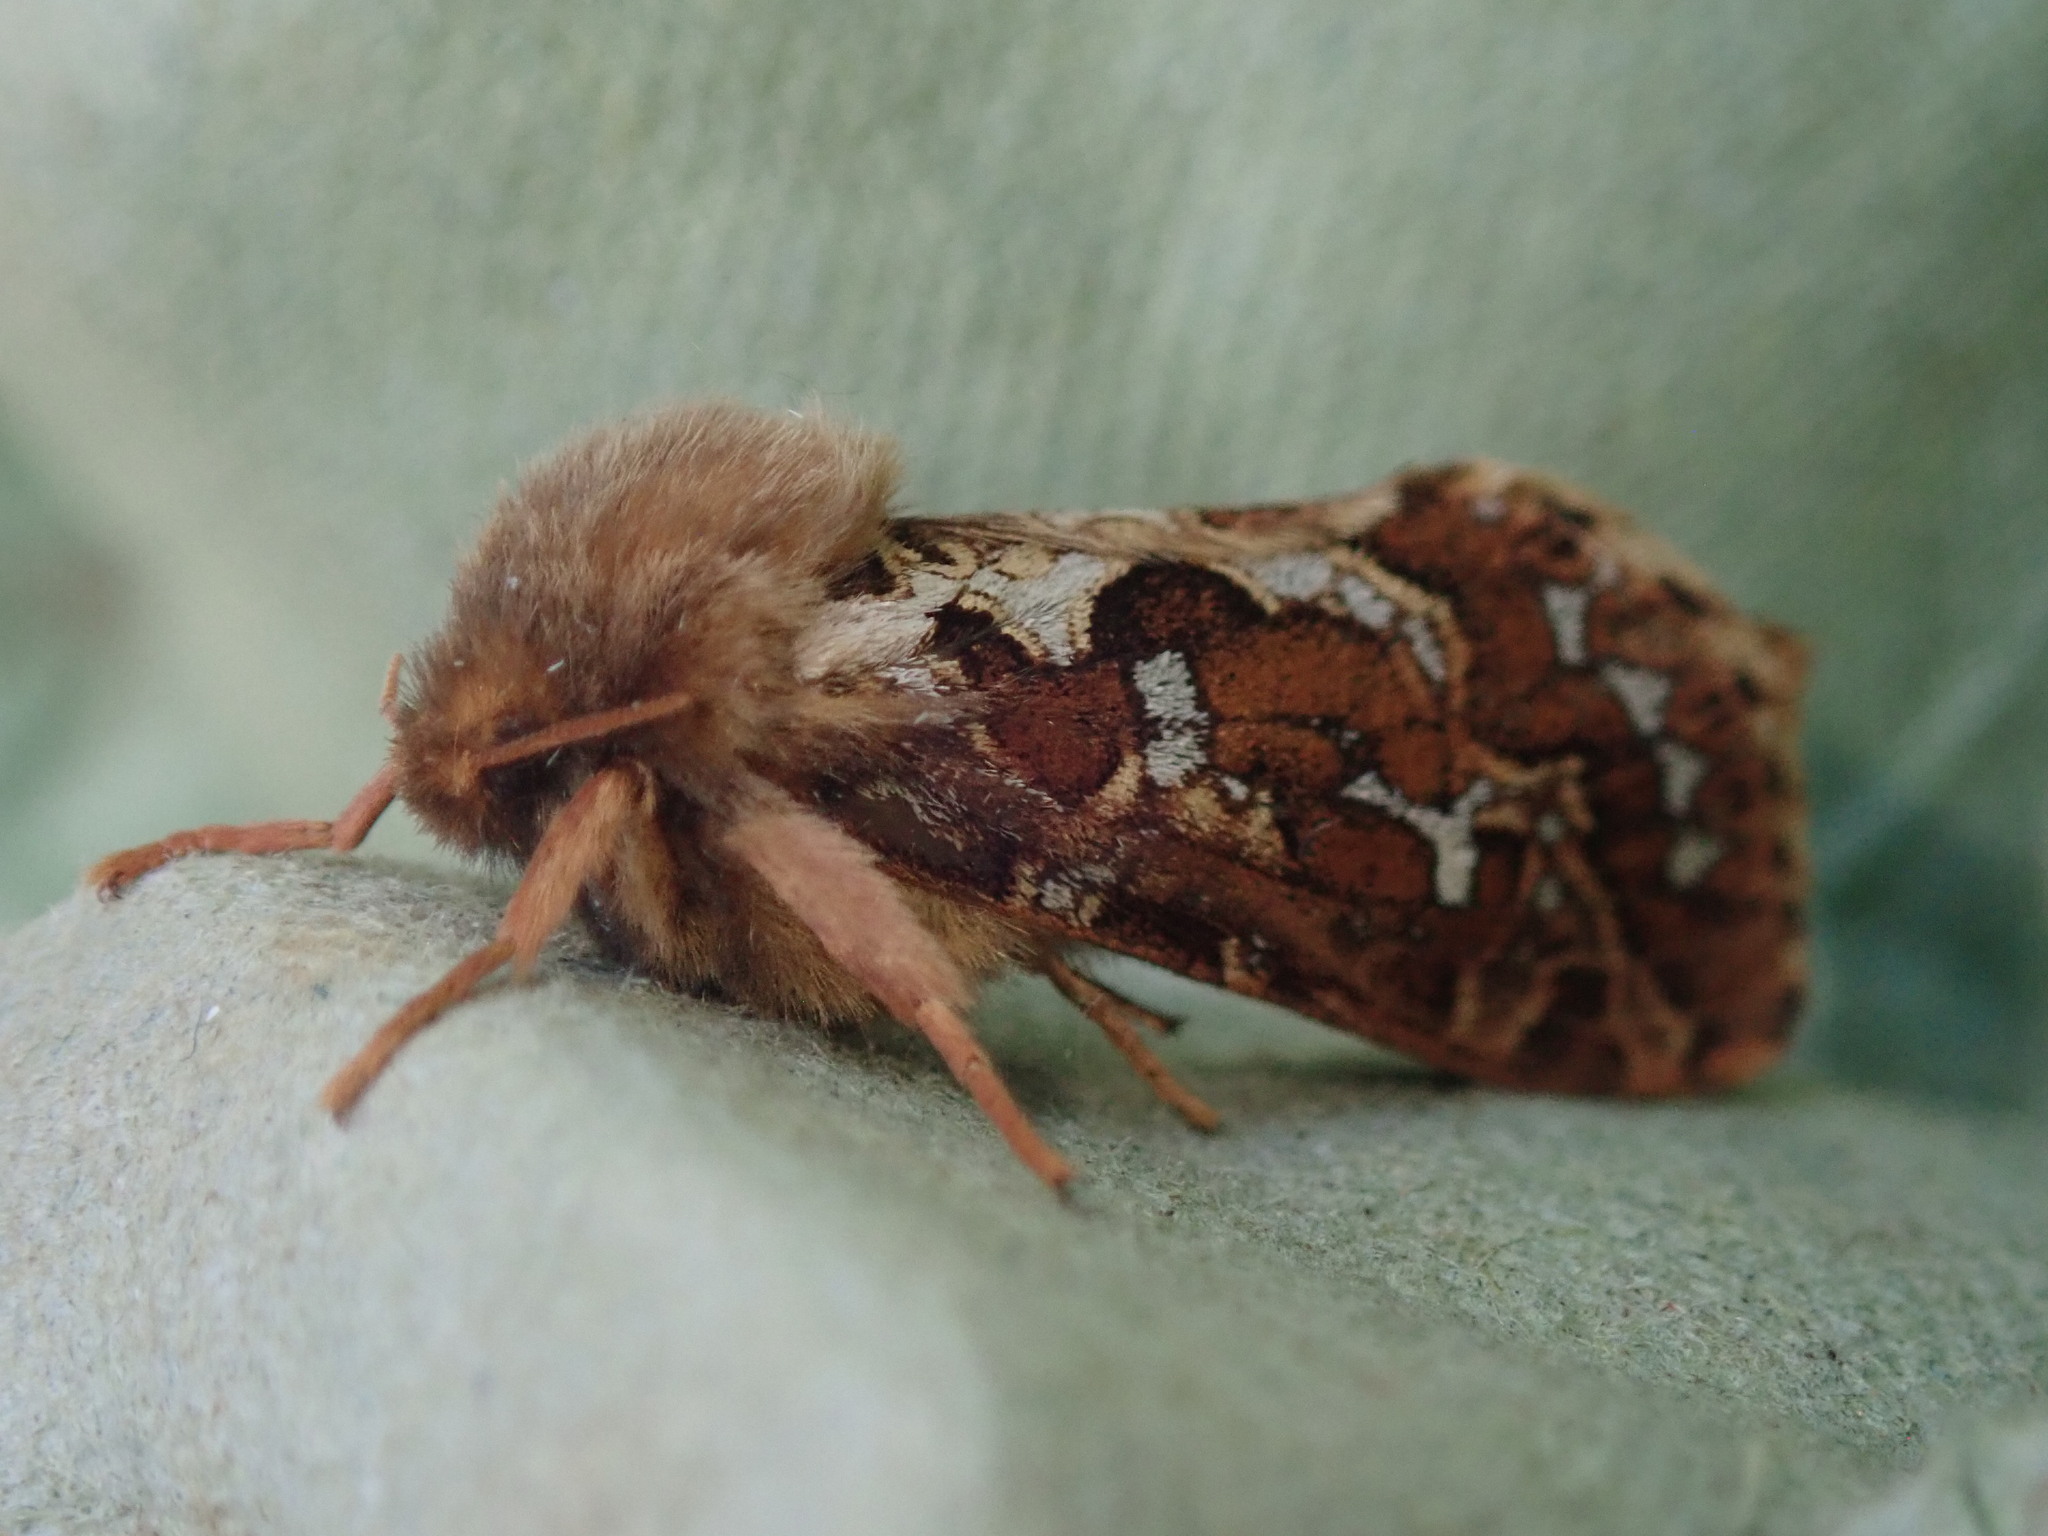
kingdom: Animalia
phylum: Arthropoda
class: Insecta
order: Lepidoptera
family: Hepialidae
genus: Korscheltellus
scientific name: Korscheltellus fusconebulosus
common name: Map-winged swift
